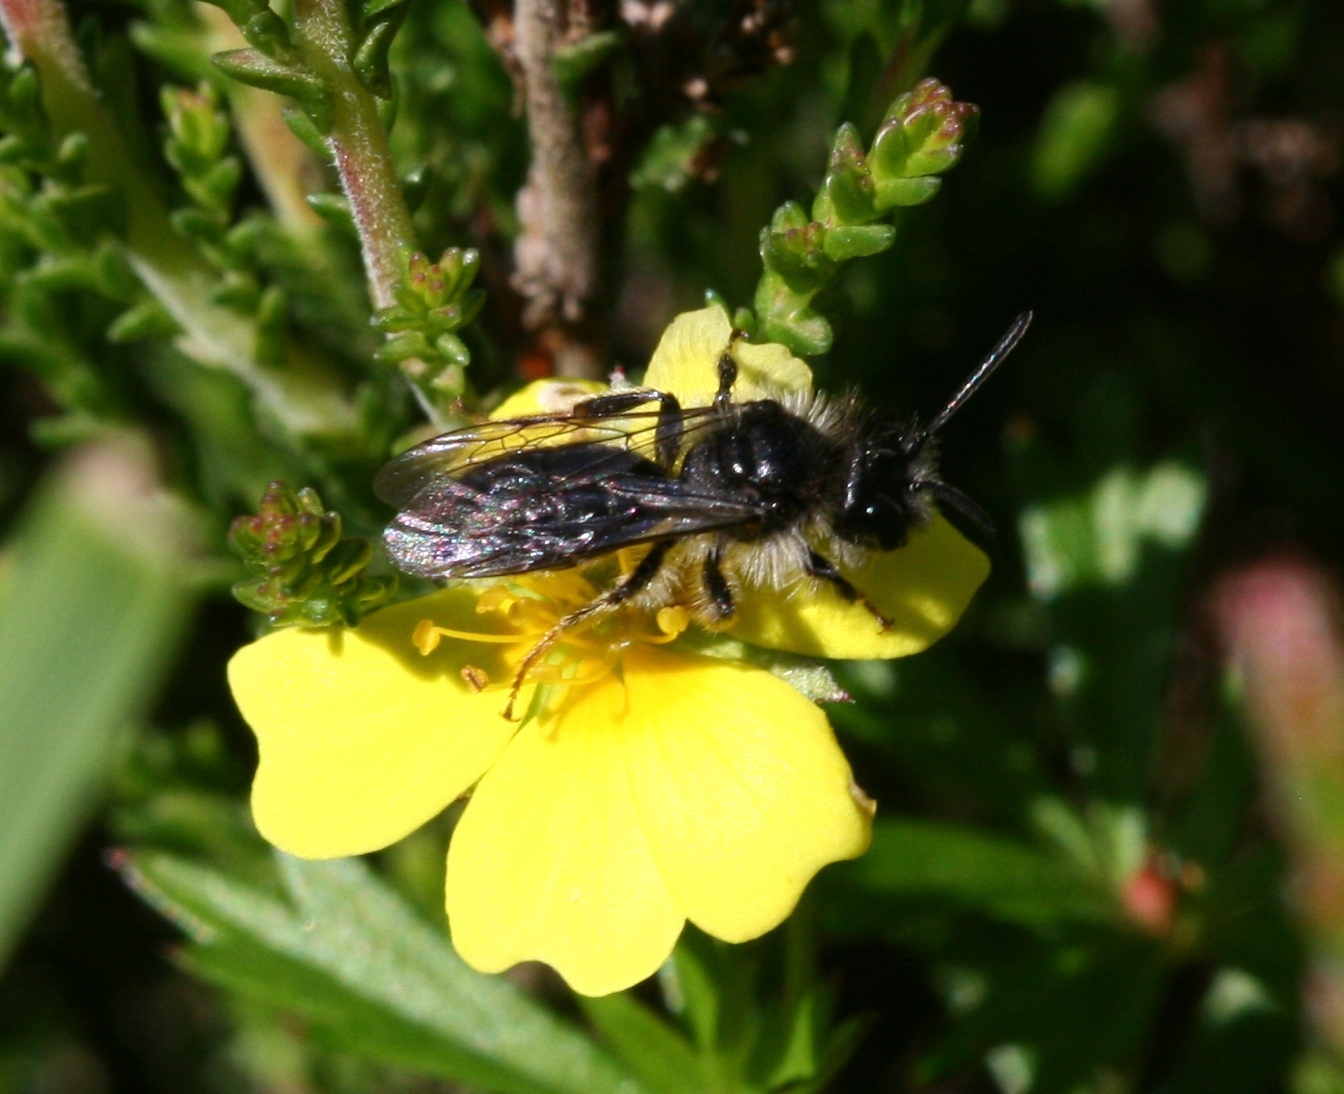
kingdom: Animalia
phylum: Arthropoda
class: Insecta
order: Hymenoptera
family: Andrenidae
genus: Andrena
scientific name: Andrena tarsata
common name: Tormentil mining bee
